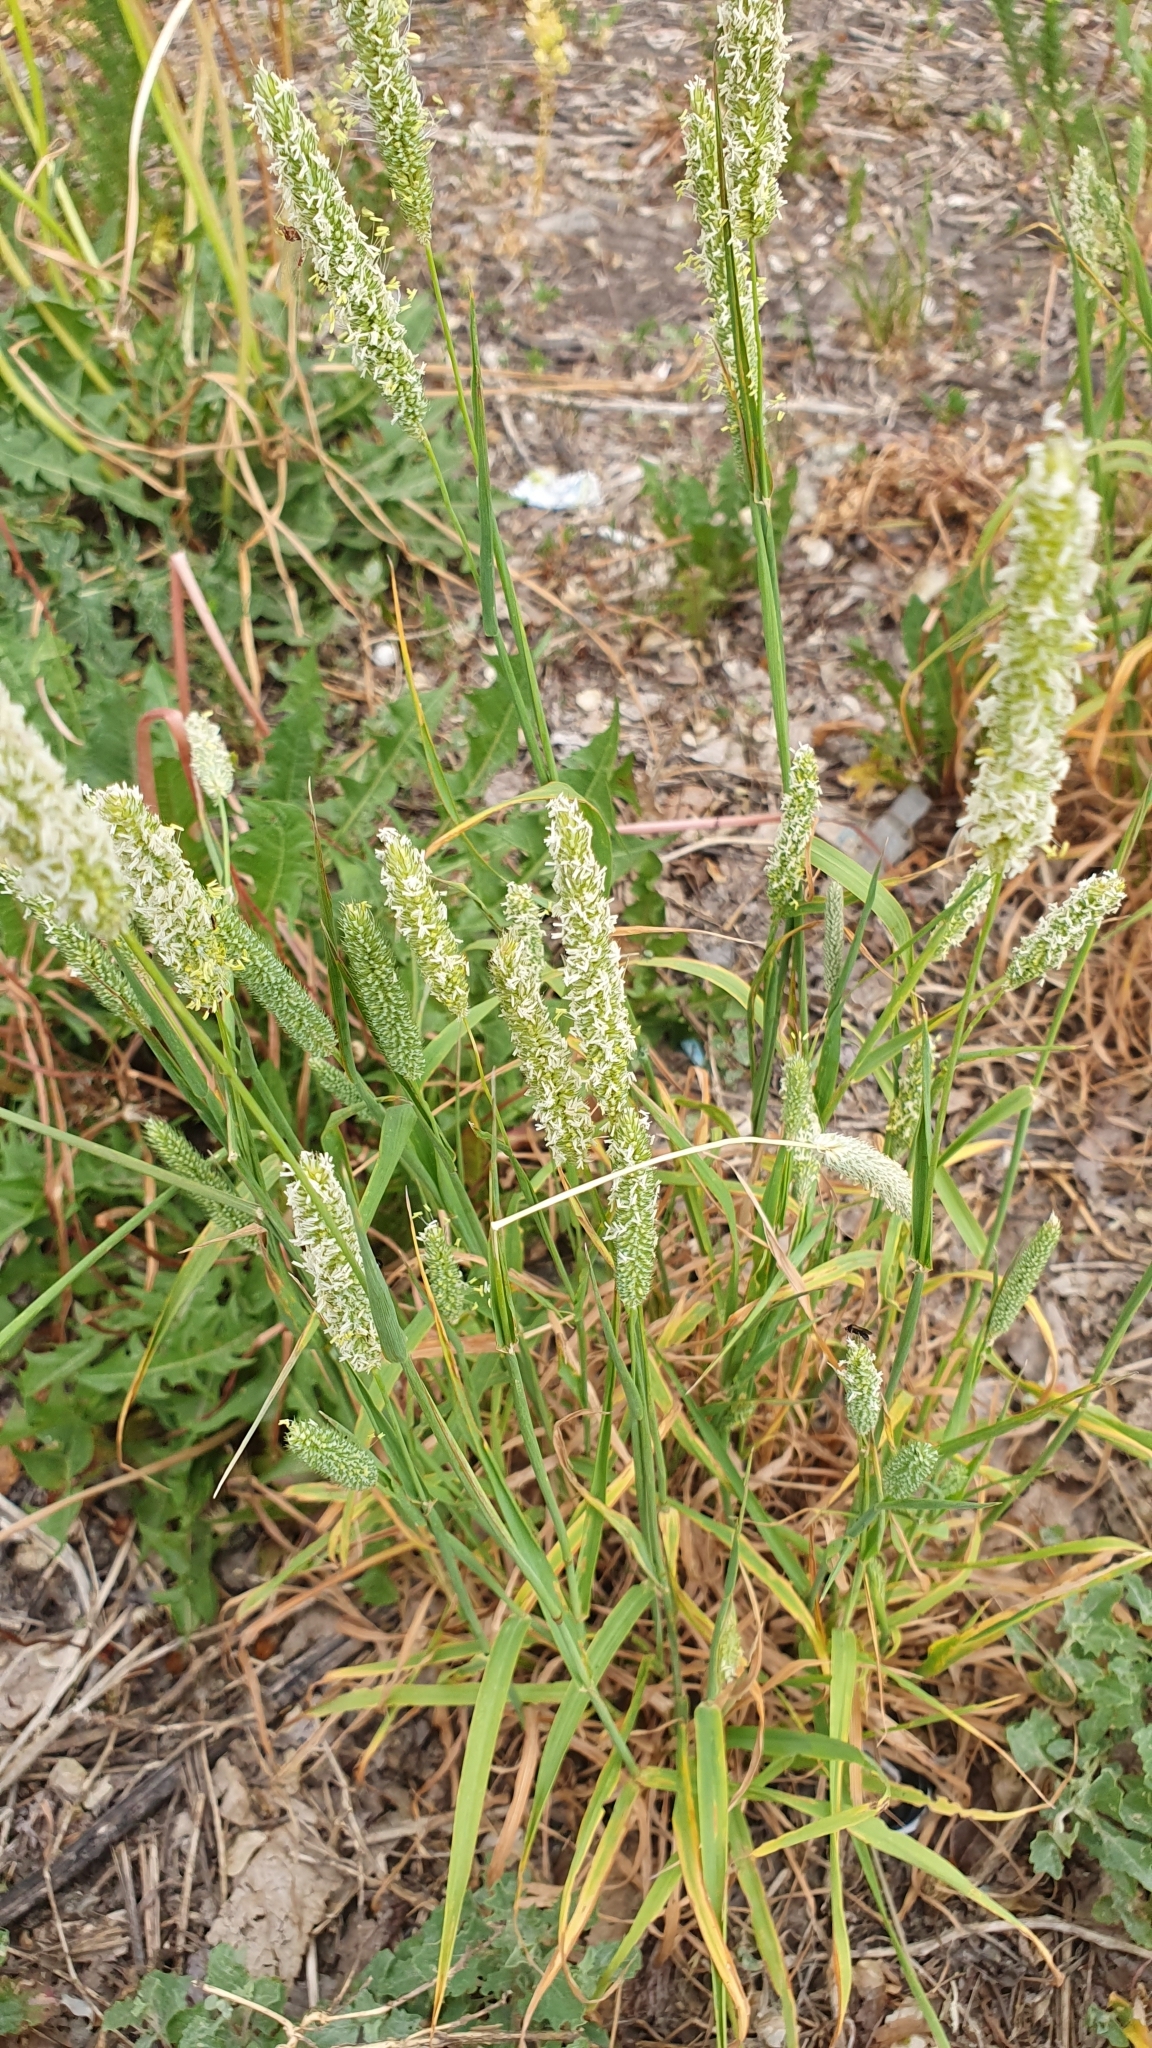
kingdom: Plantae
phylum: Tracheophyta
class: Liliopsida
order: Poales
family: Poaceae
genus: Phleum
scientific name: Phleum phleoides
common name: Purple-stem cat's-tail
